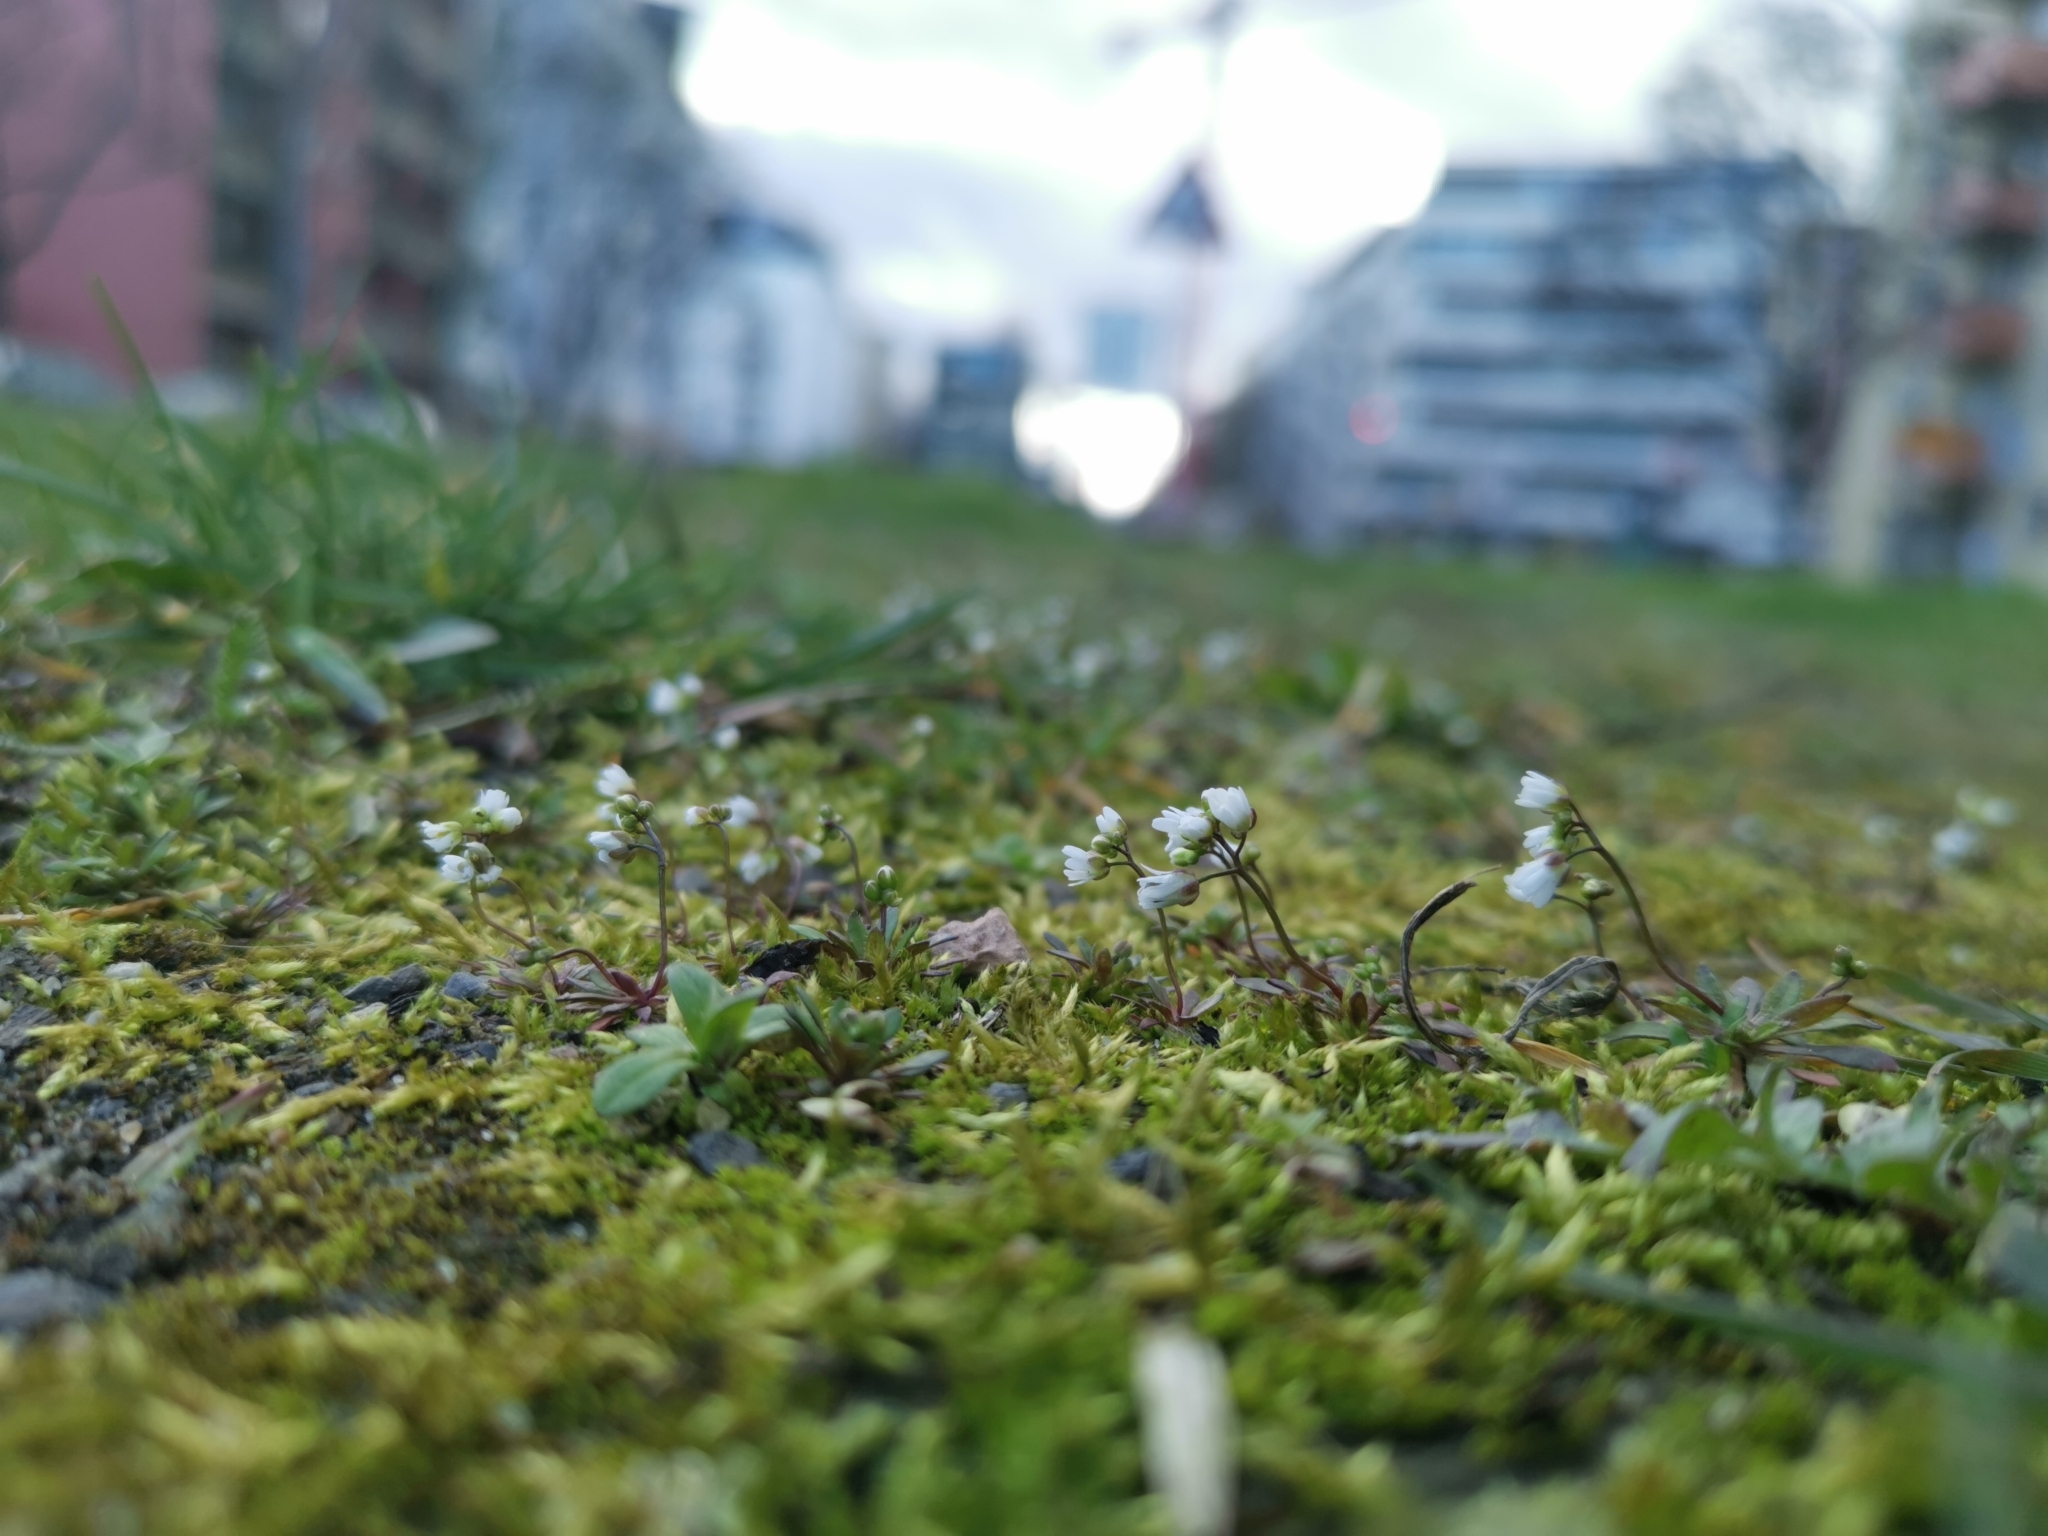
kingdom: Plantae
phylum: Tracheophyta
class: Magnoliopsida
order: Brassicales
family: Brassicaceae
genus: Draba
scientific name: Draba verna
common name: Spring draba
